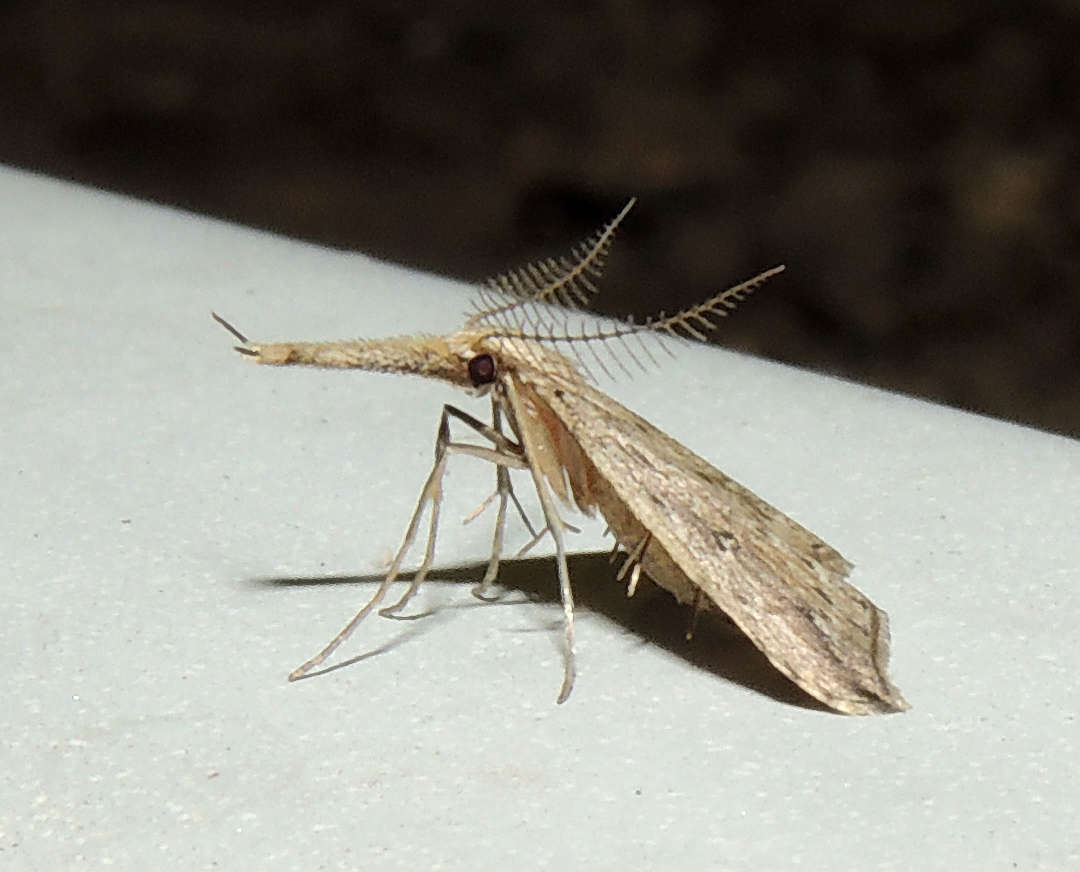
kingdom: Animalia
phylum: Arthropoda
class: Insecta
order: Lepidoptera
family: Erebidae
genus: Trigonistis
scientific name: Trigonistis demonias
